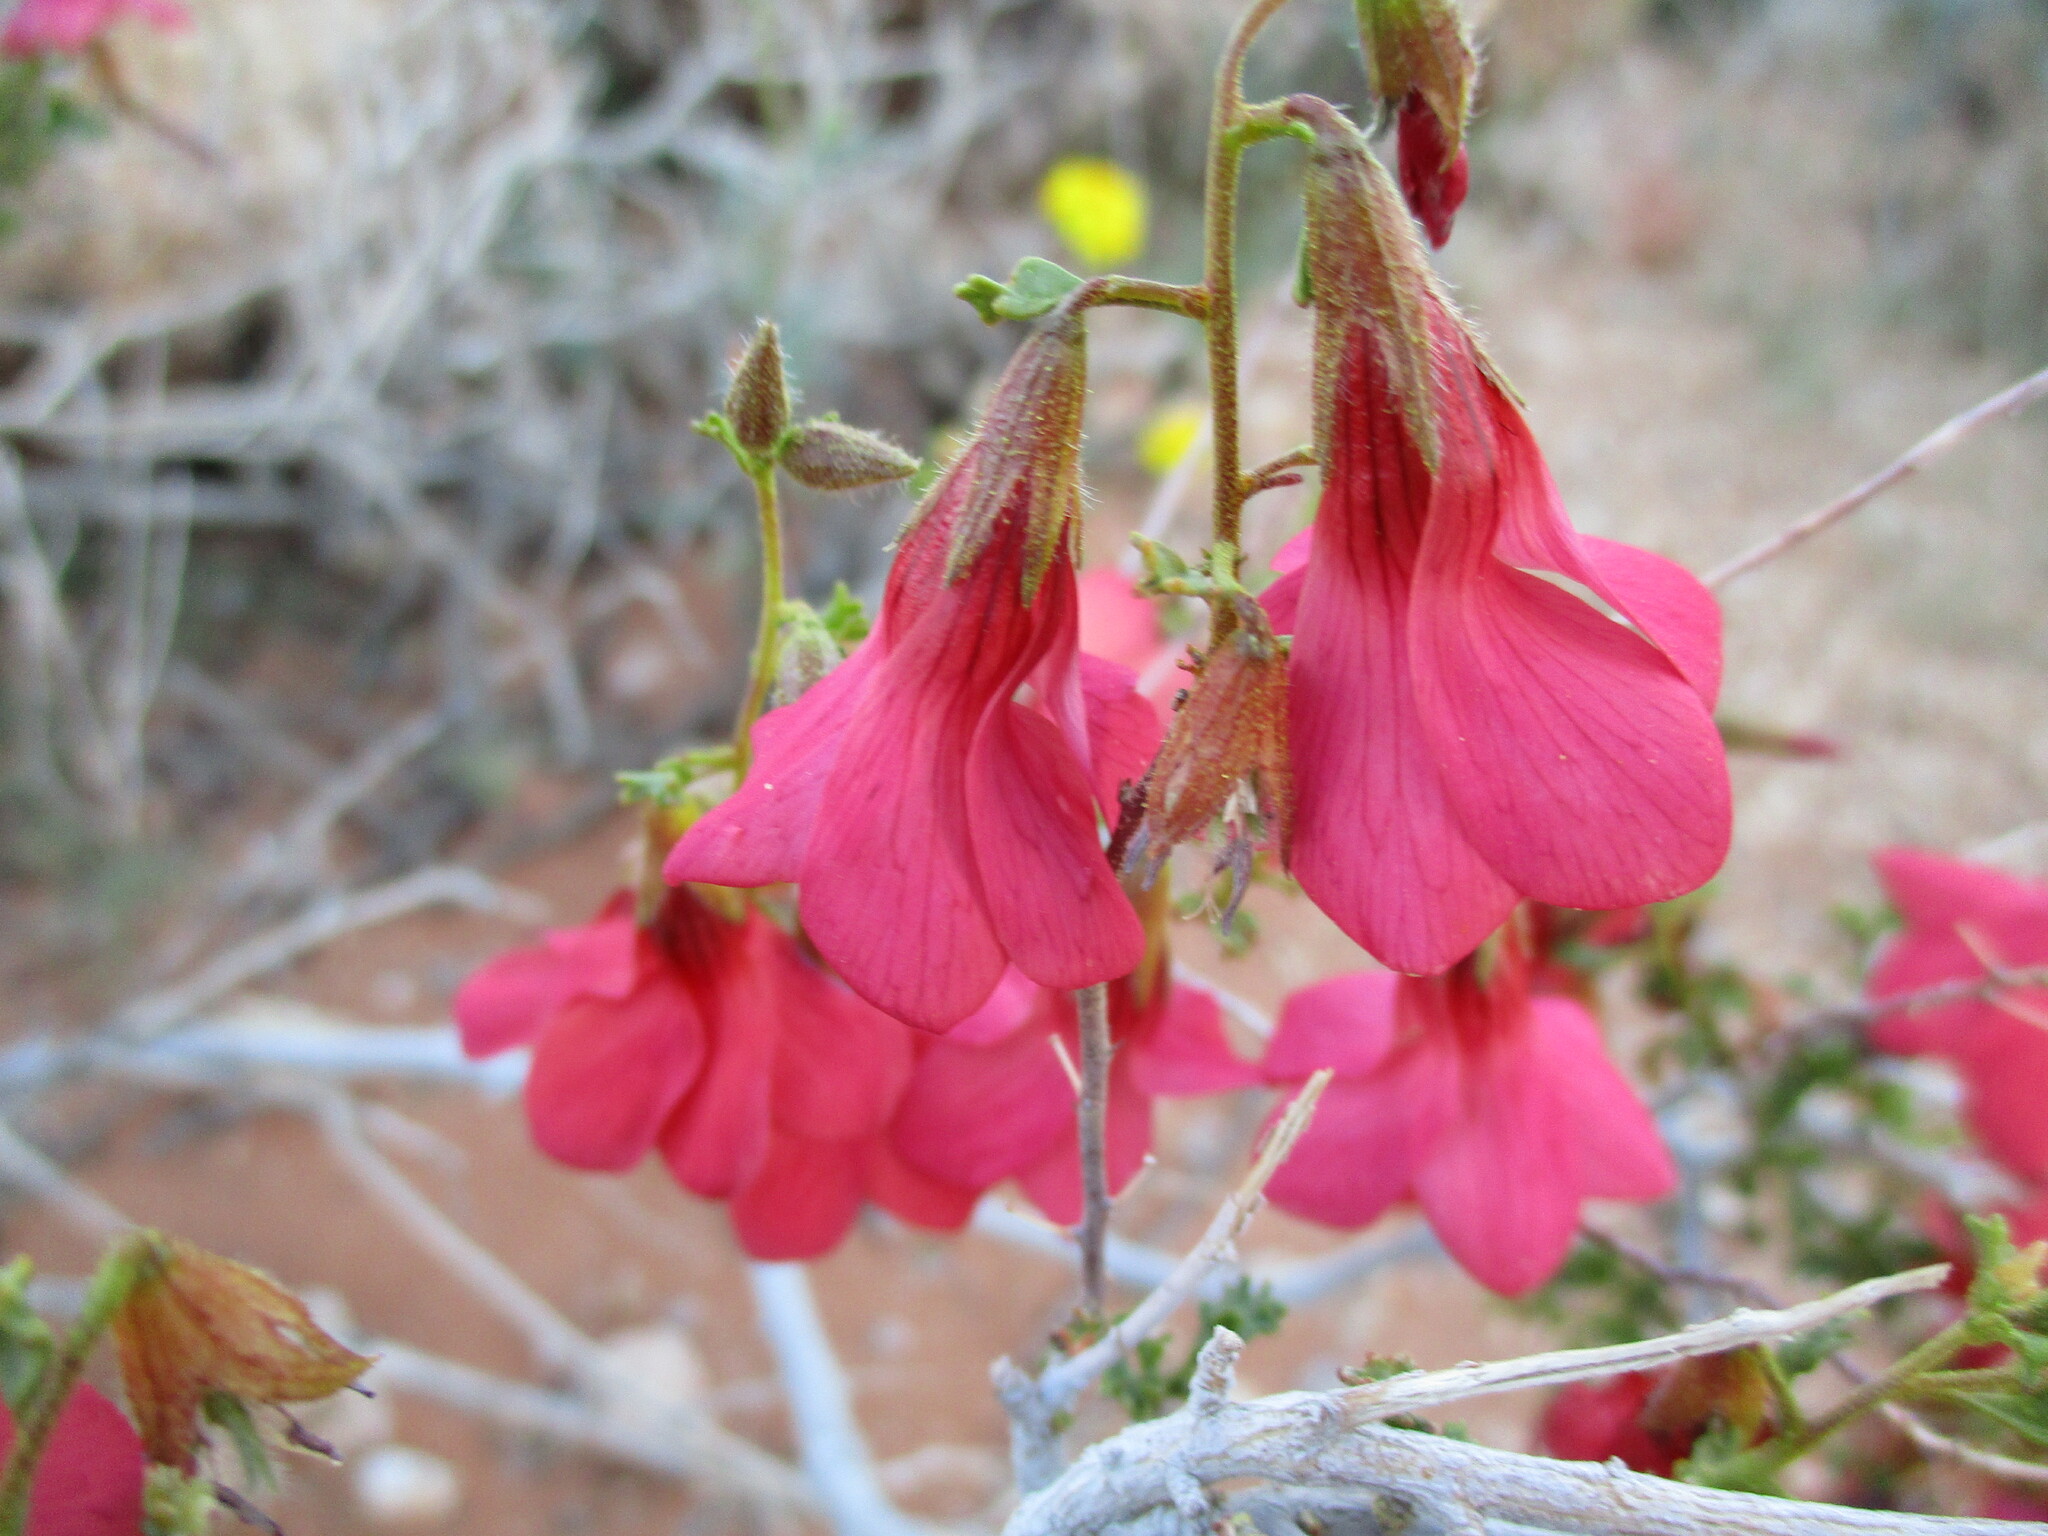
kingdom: Plantae
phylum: Tracheophyta
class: Magnoliopsida
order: Malvales
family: Malvaceae
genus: Hermannia
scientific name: Hermannia stricta
